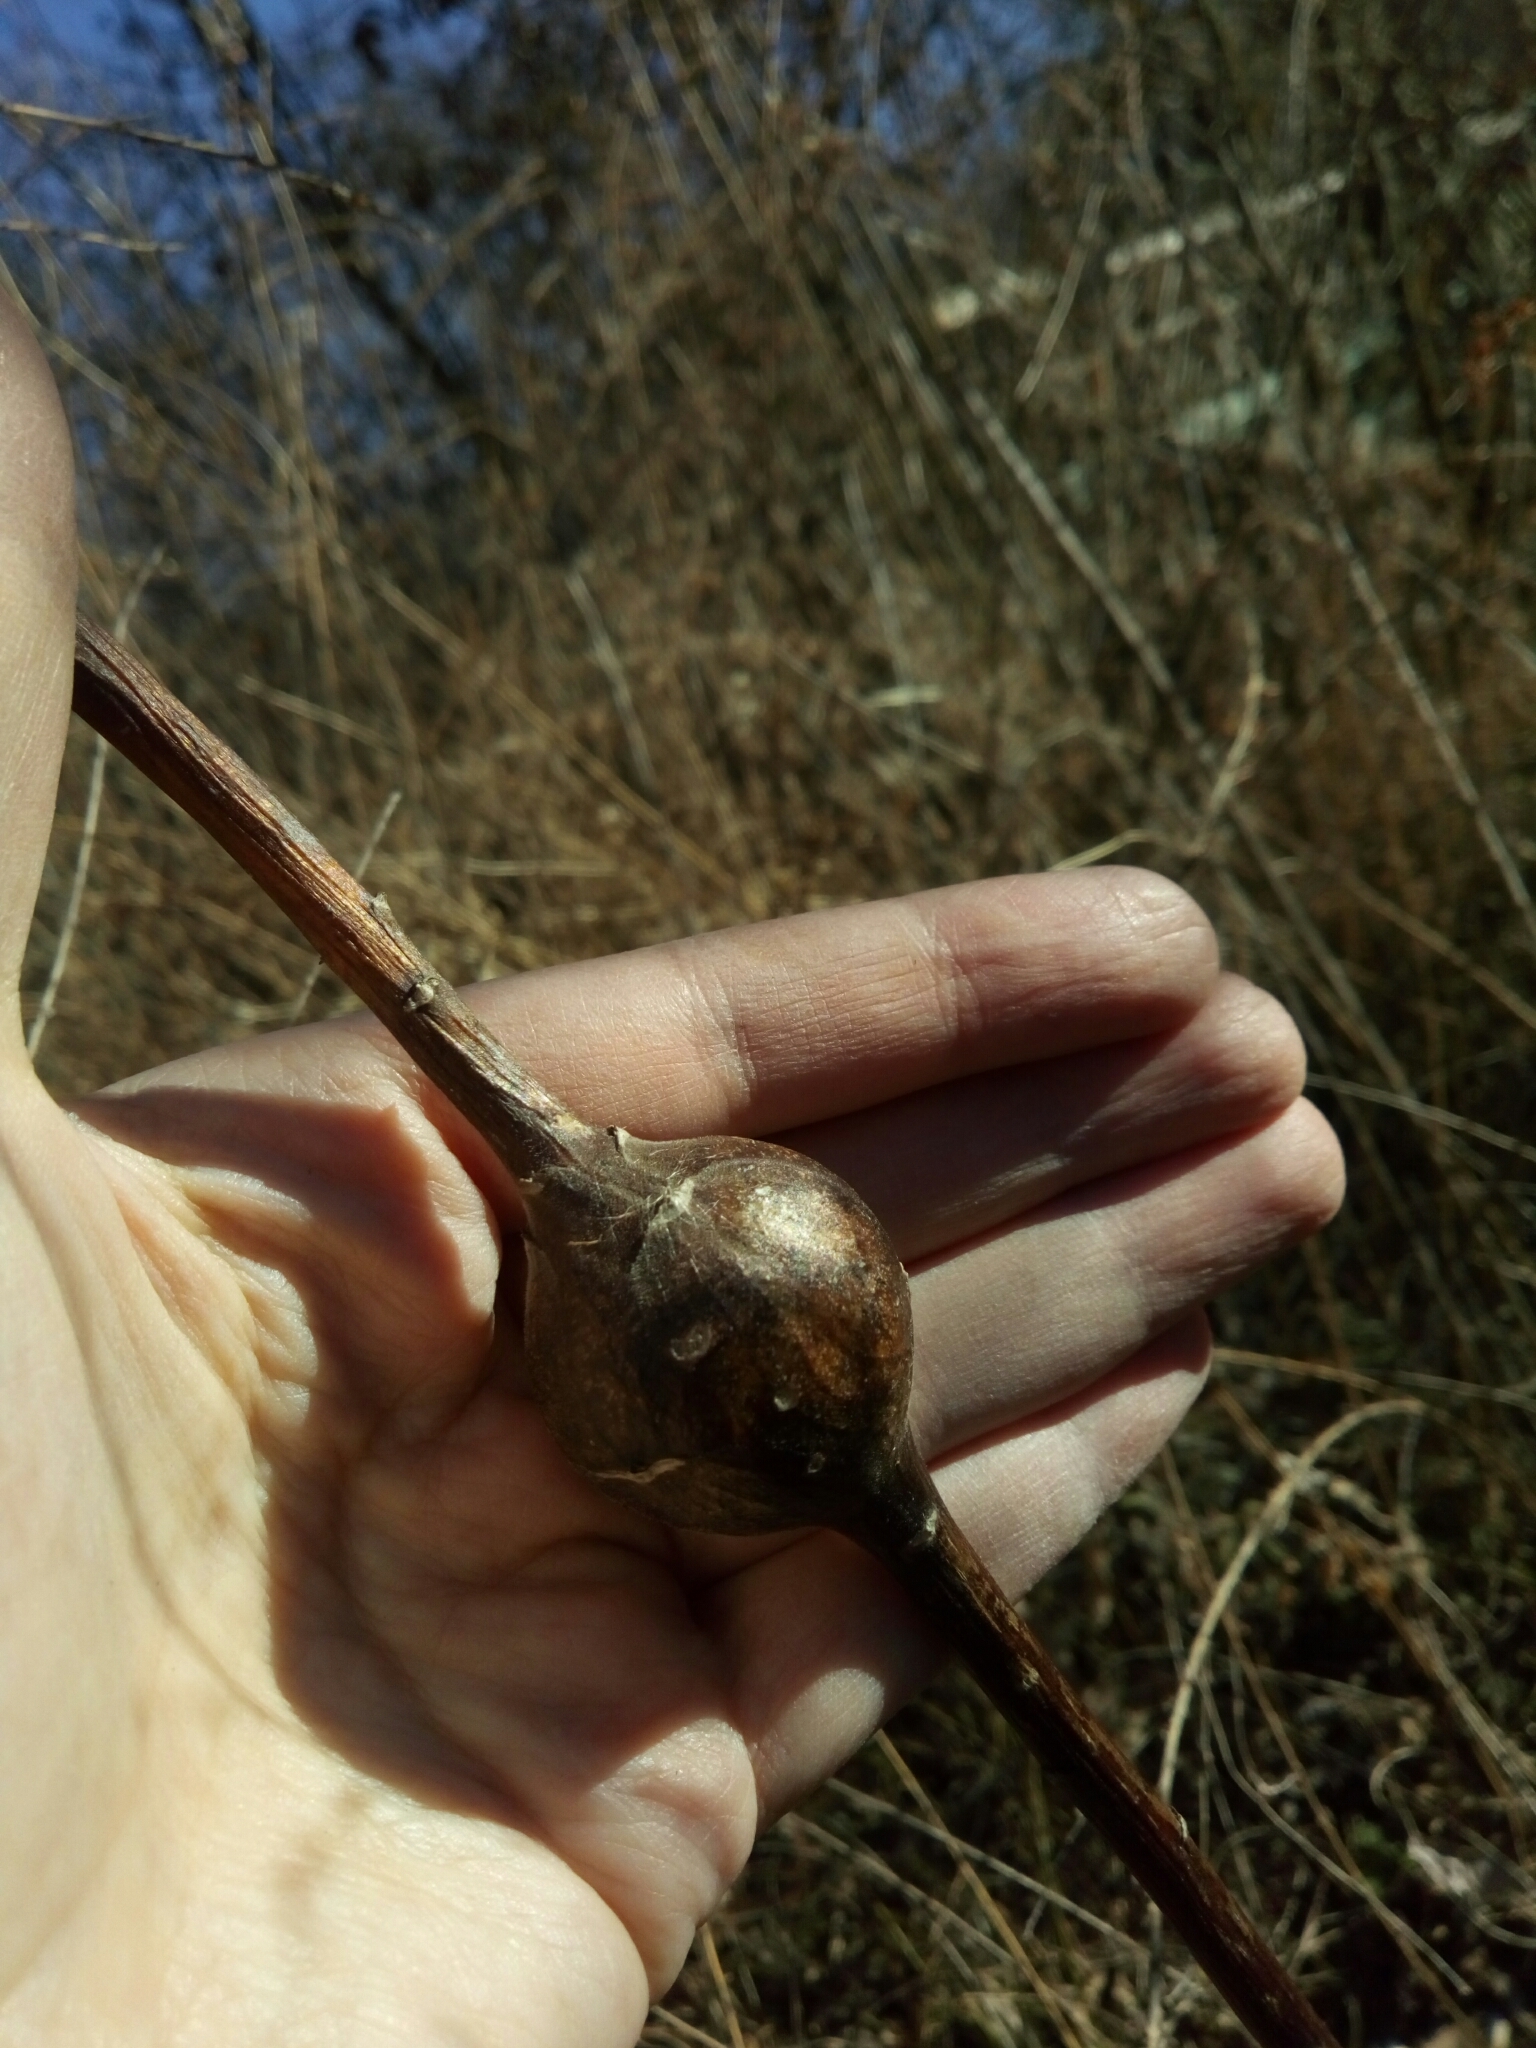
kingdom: Animalia
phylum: Arthropoda
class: Insecta
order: Diptera
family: Tephritidae
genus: Eurosta
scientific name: Eurosta solidaginis
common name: Goldenrod gall fly
